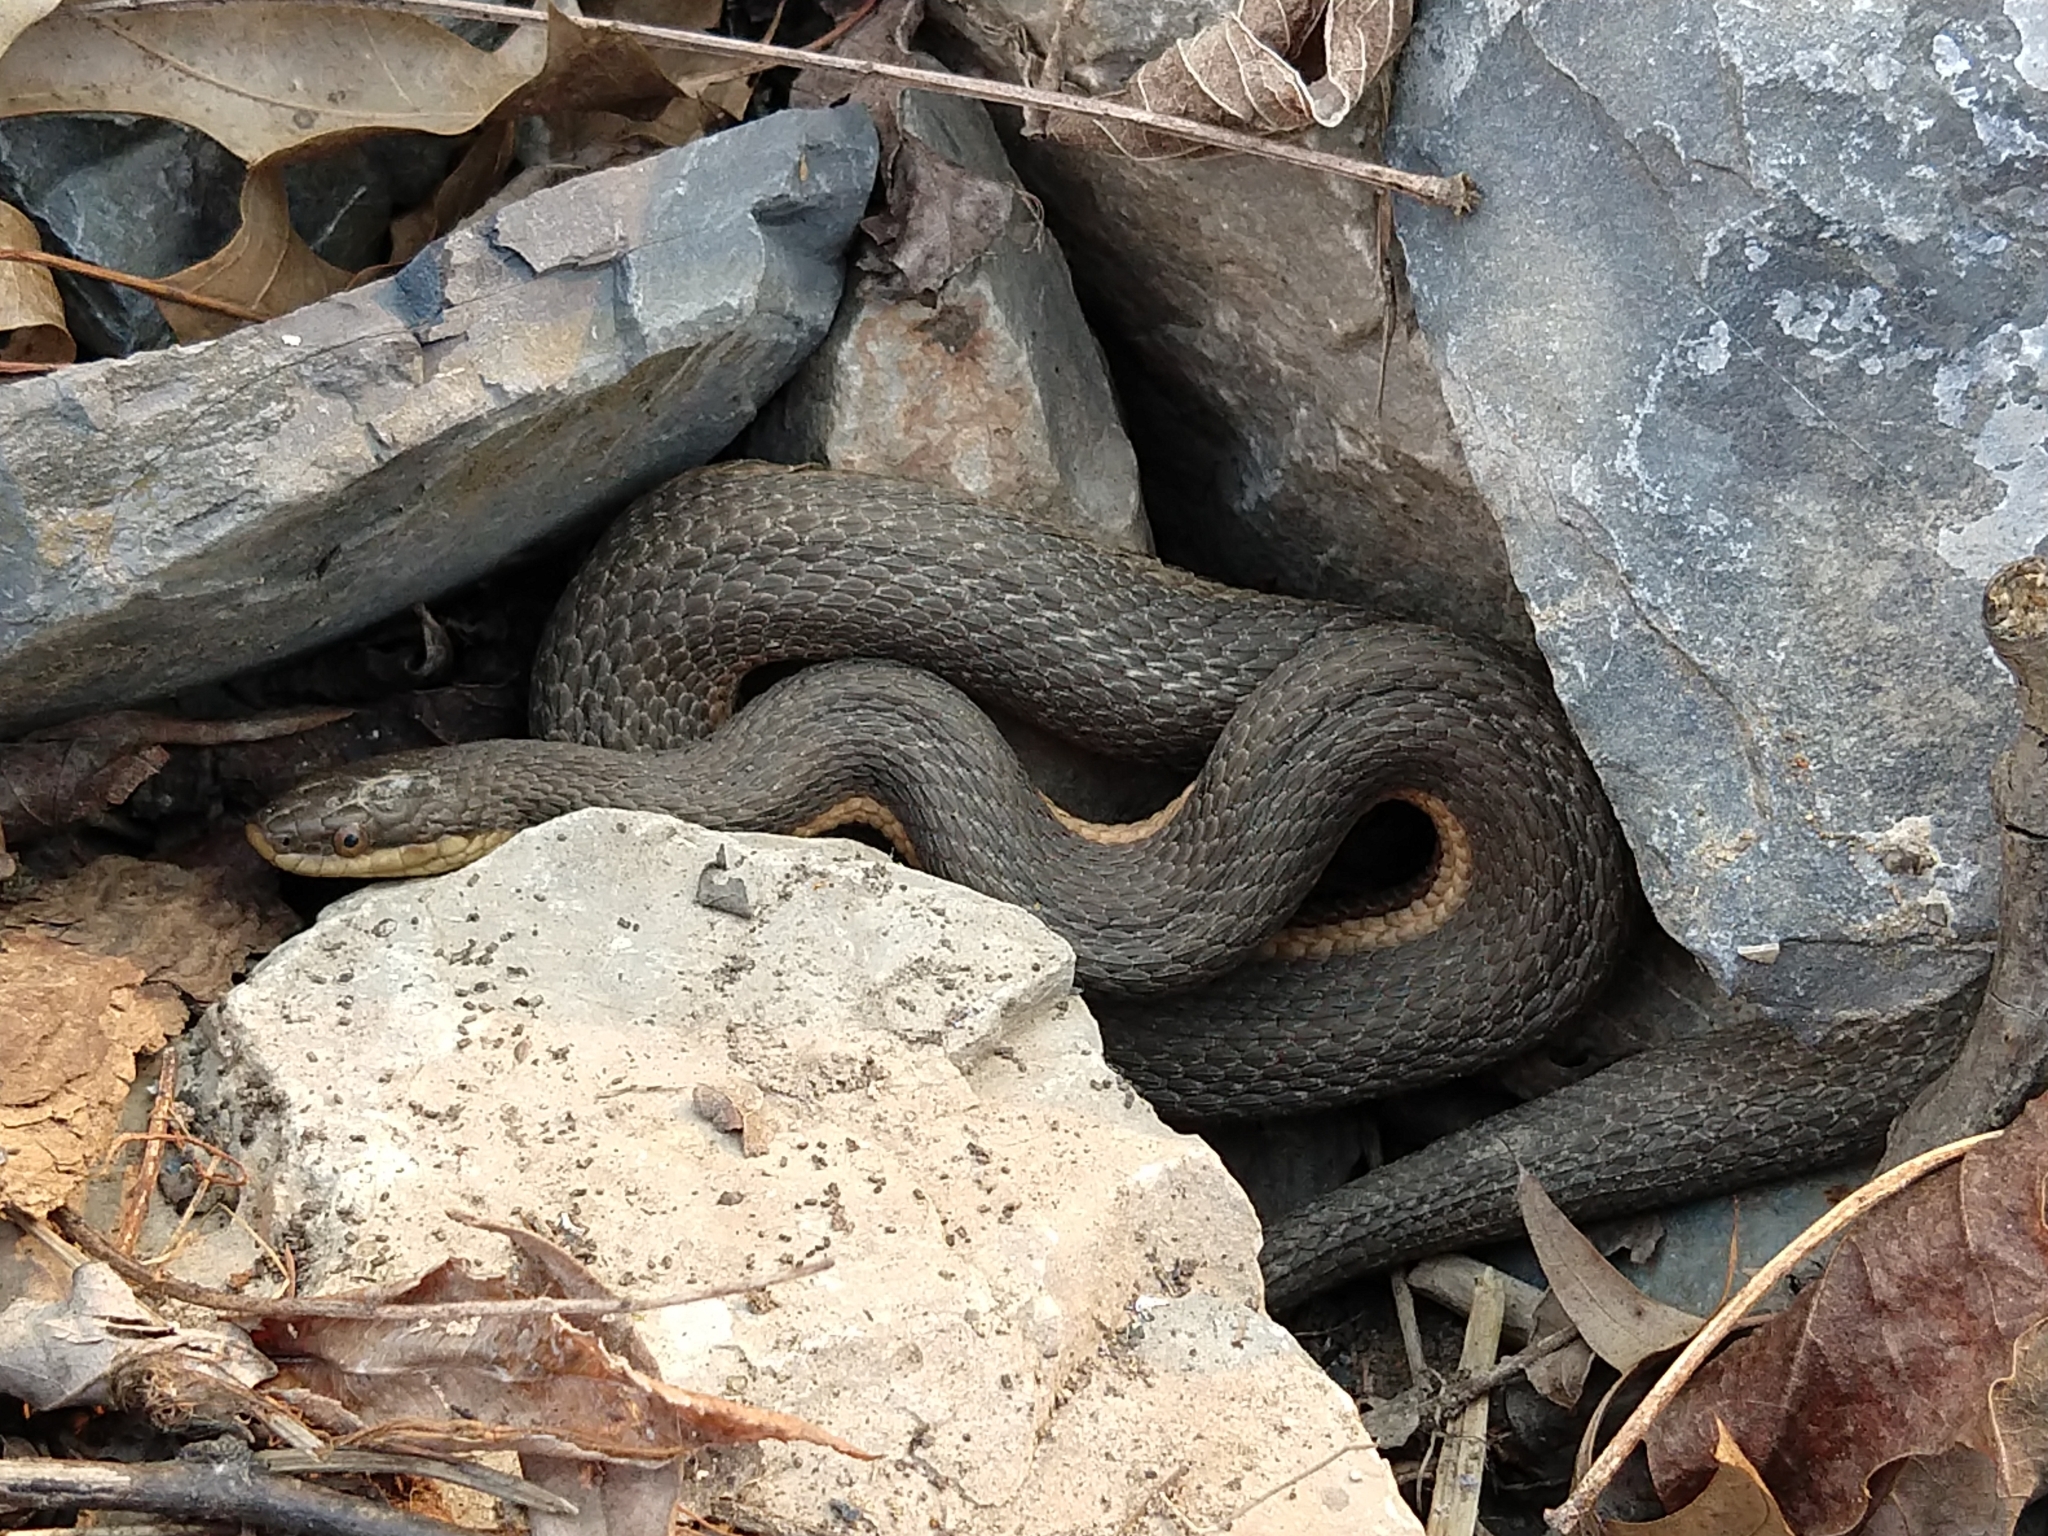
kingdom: Animalia
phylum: Chordata
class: Squamata
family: Colubridae
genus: Regina
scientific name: Regina septemvittata
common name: Queen snake
